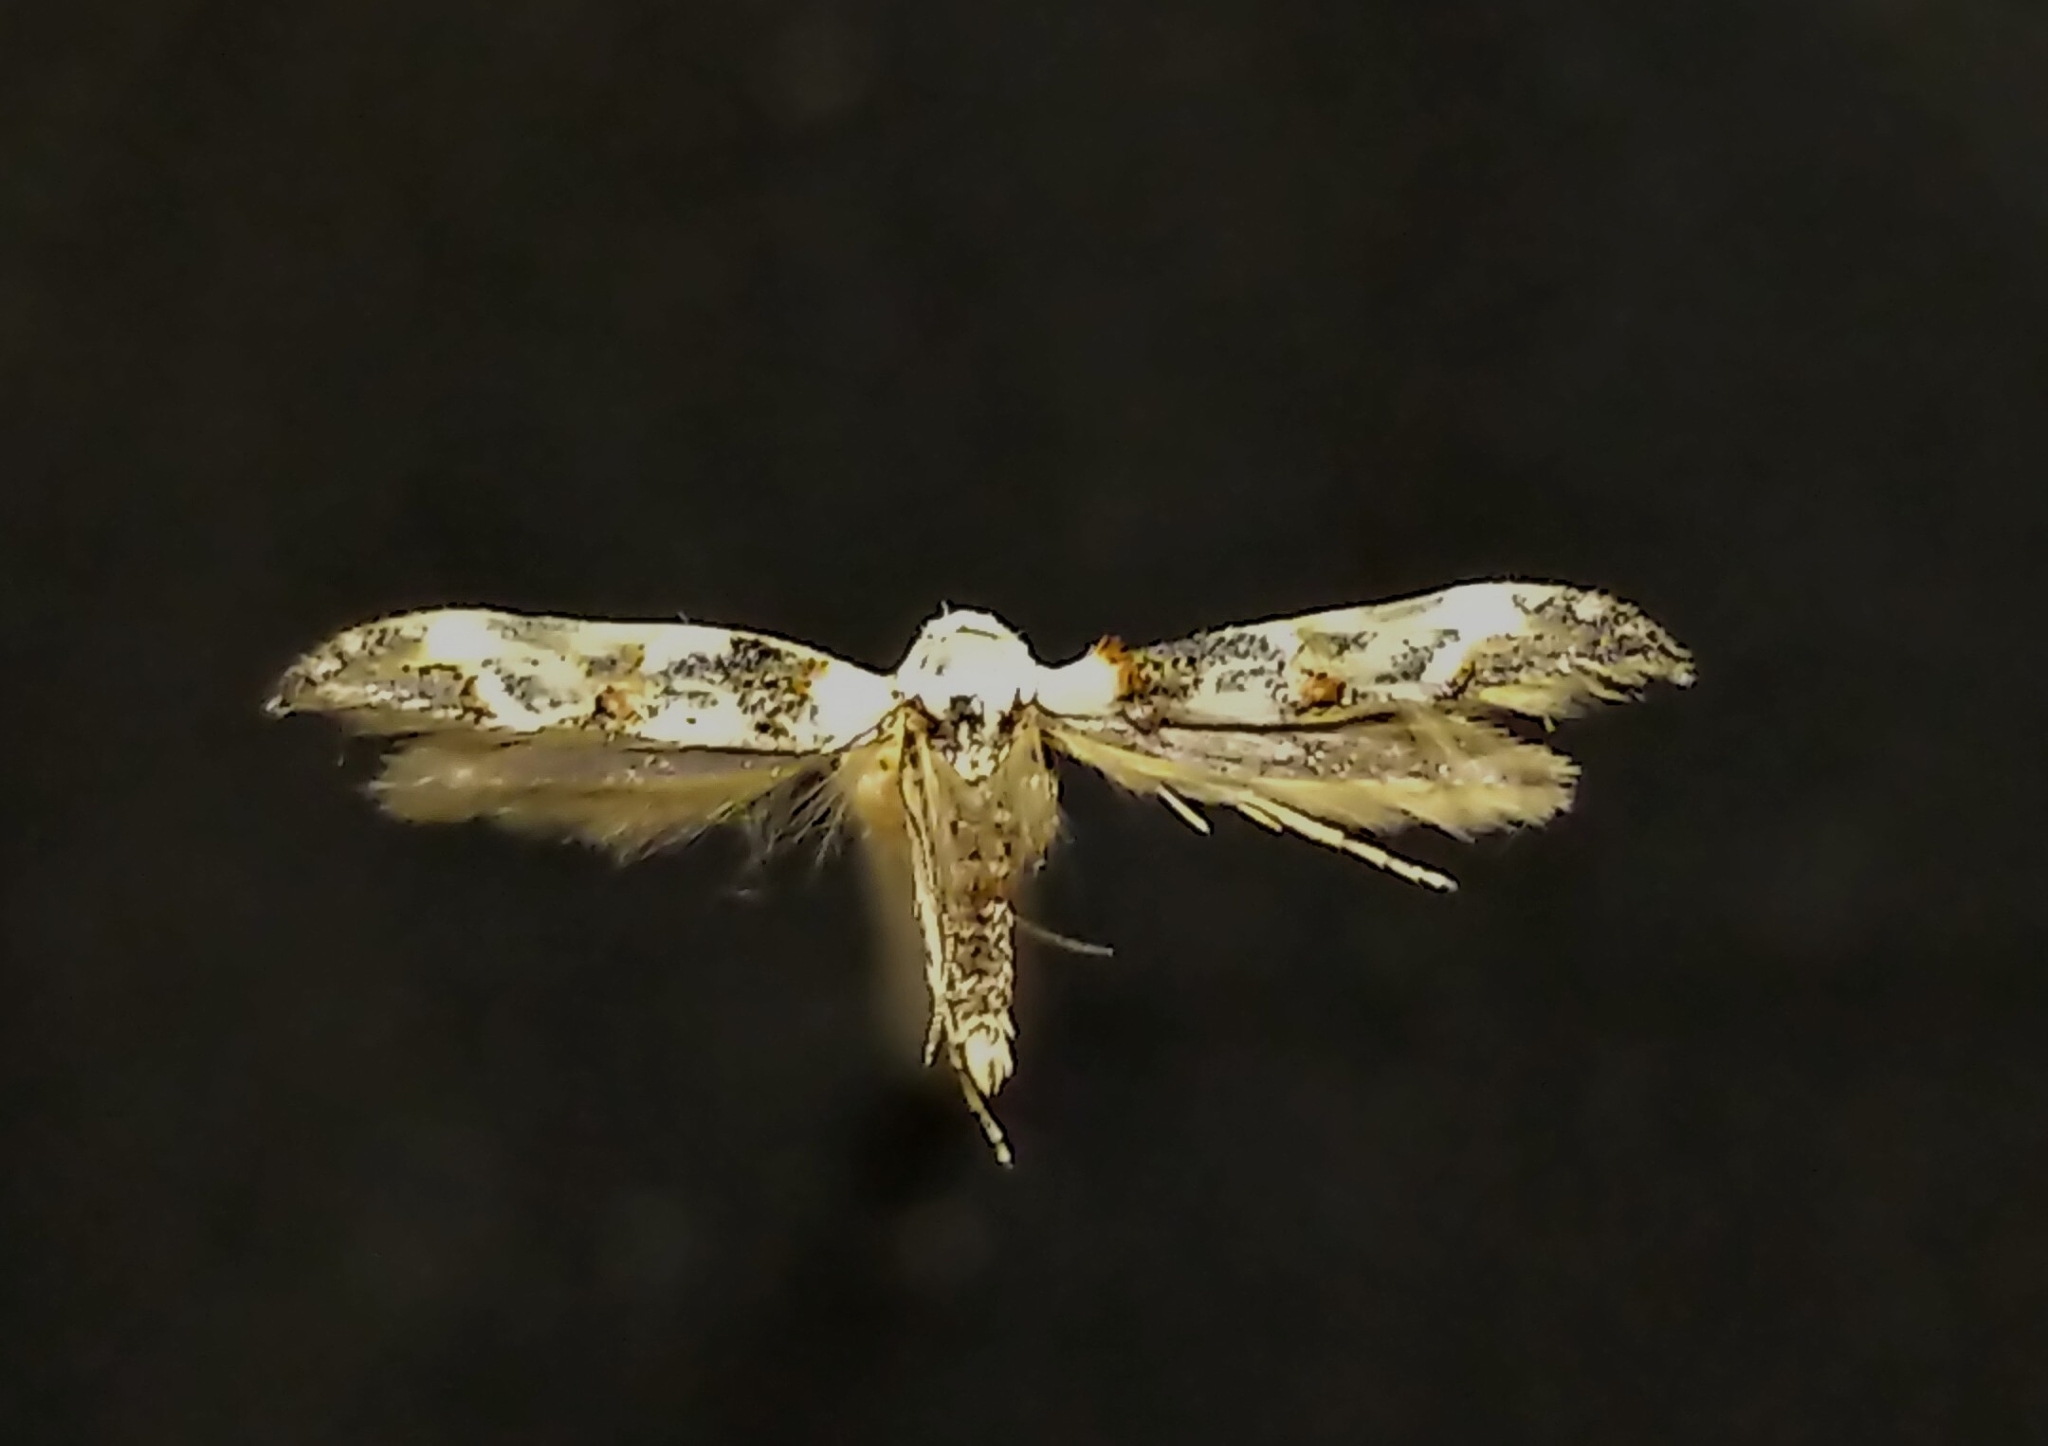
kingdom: Animalia
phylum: Arthropoda
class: Insecta
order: Lepidoptera
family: Momphidae
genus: Mompha
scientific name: Mompha claudiella
